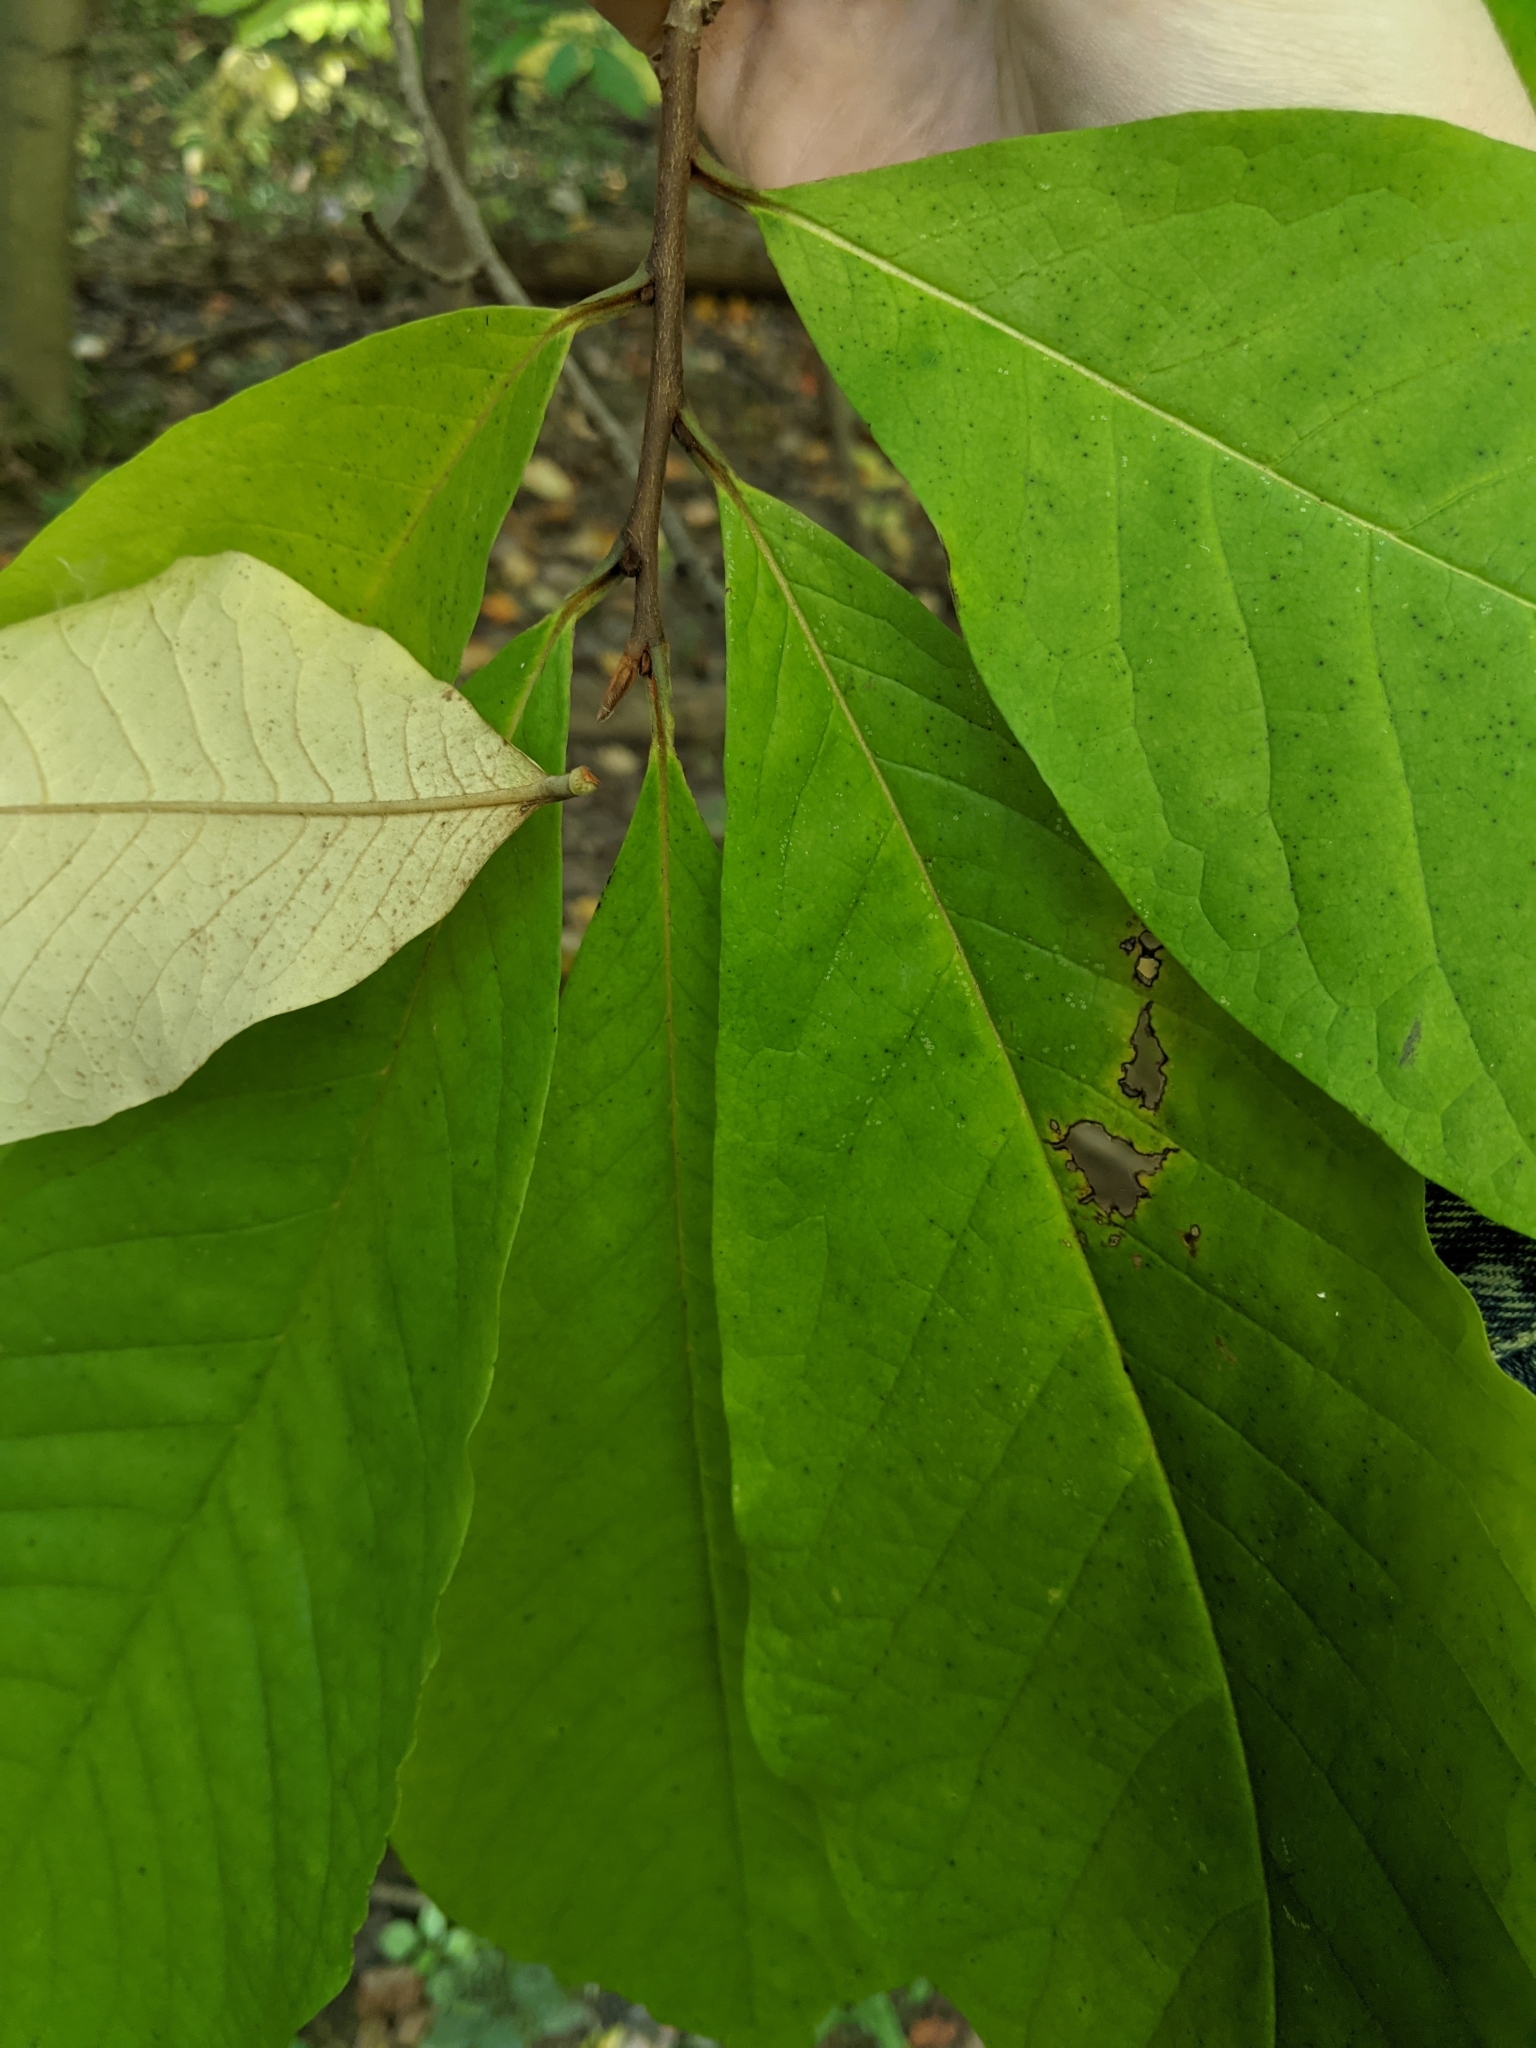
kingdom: Plantae
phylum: Tracheophyta
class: Magnoliopsida
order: Magnoliales
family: Annonaceae
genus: Asimina
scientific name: Asimina triloba
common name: Dog-banana
